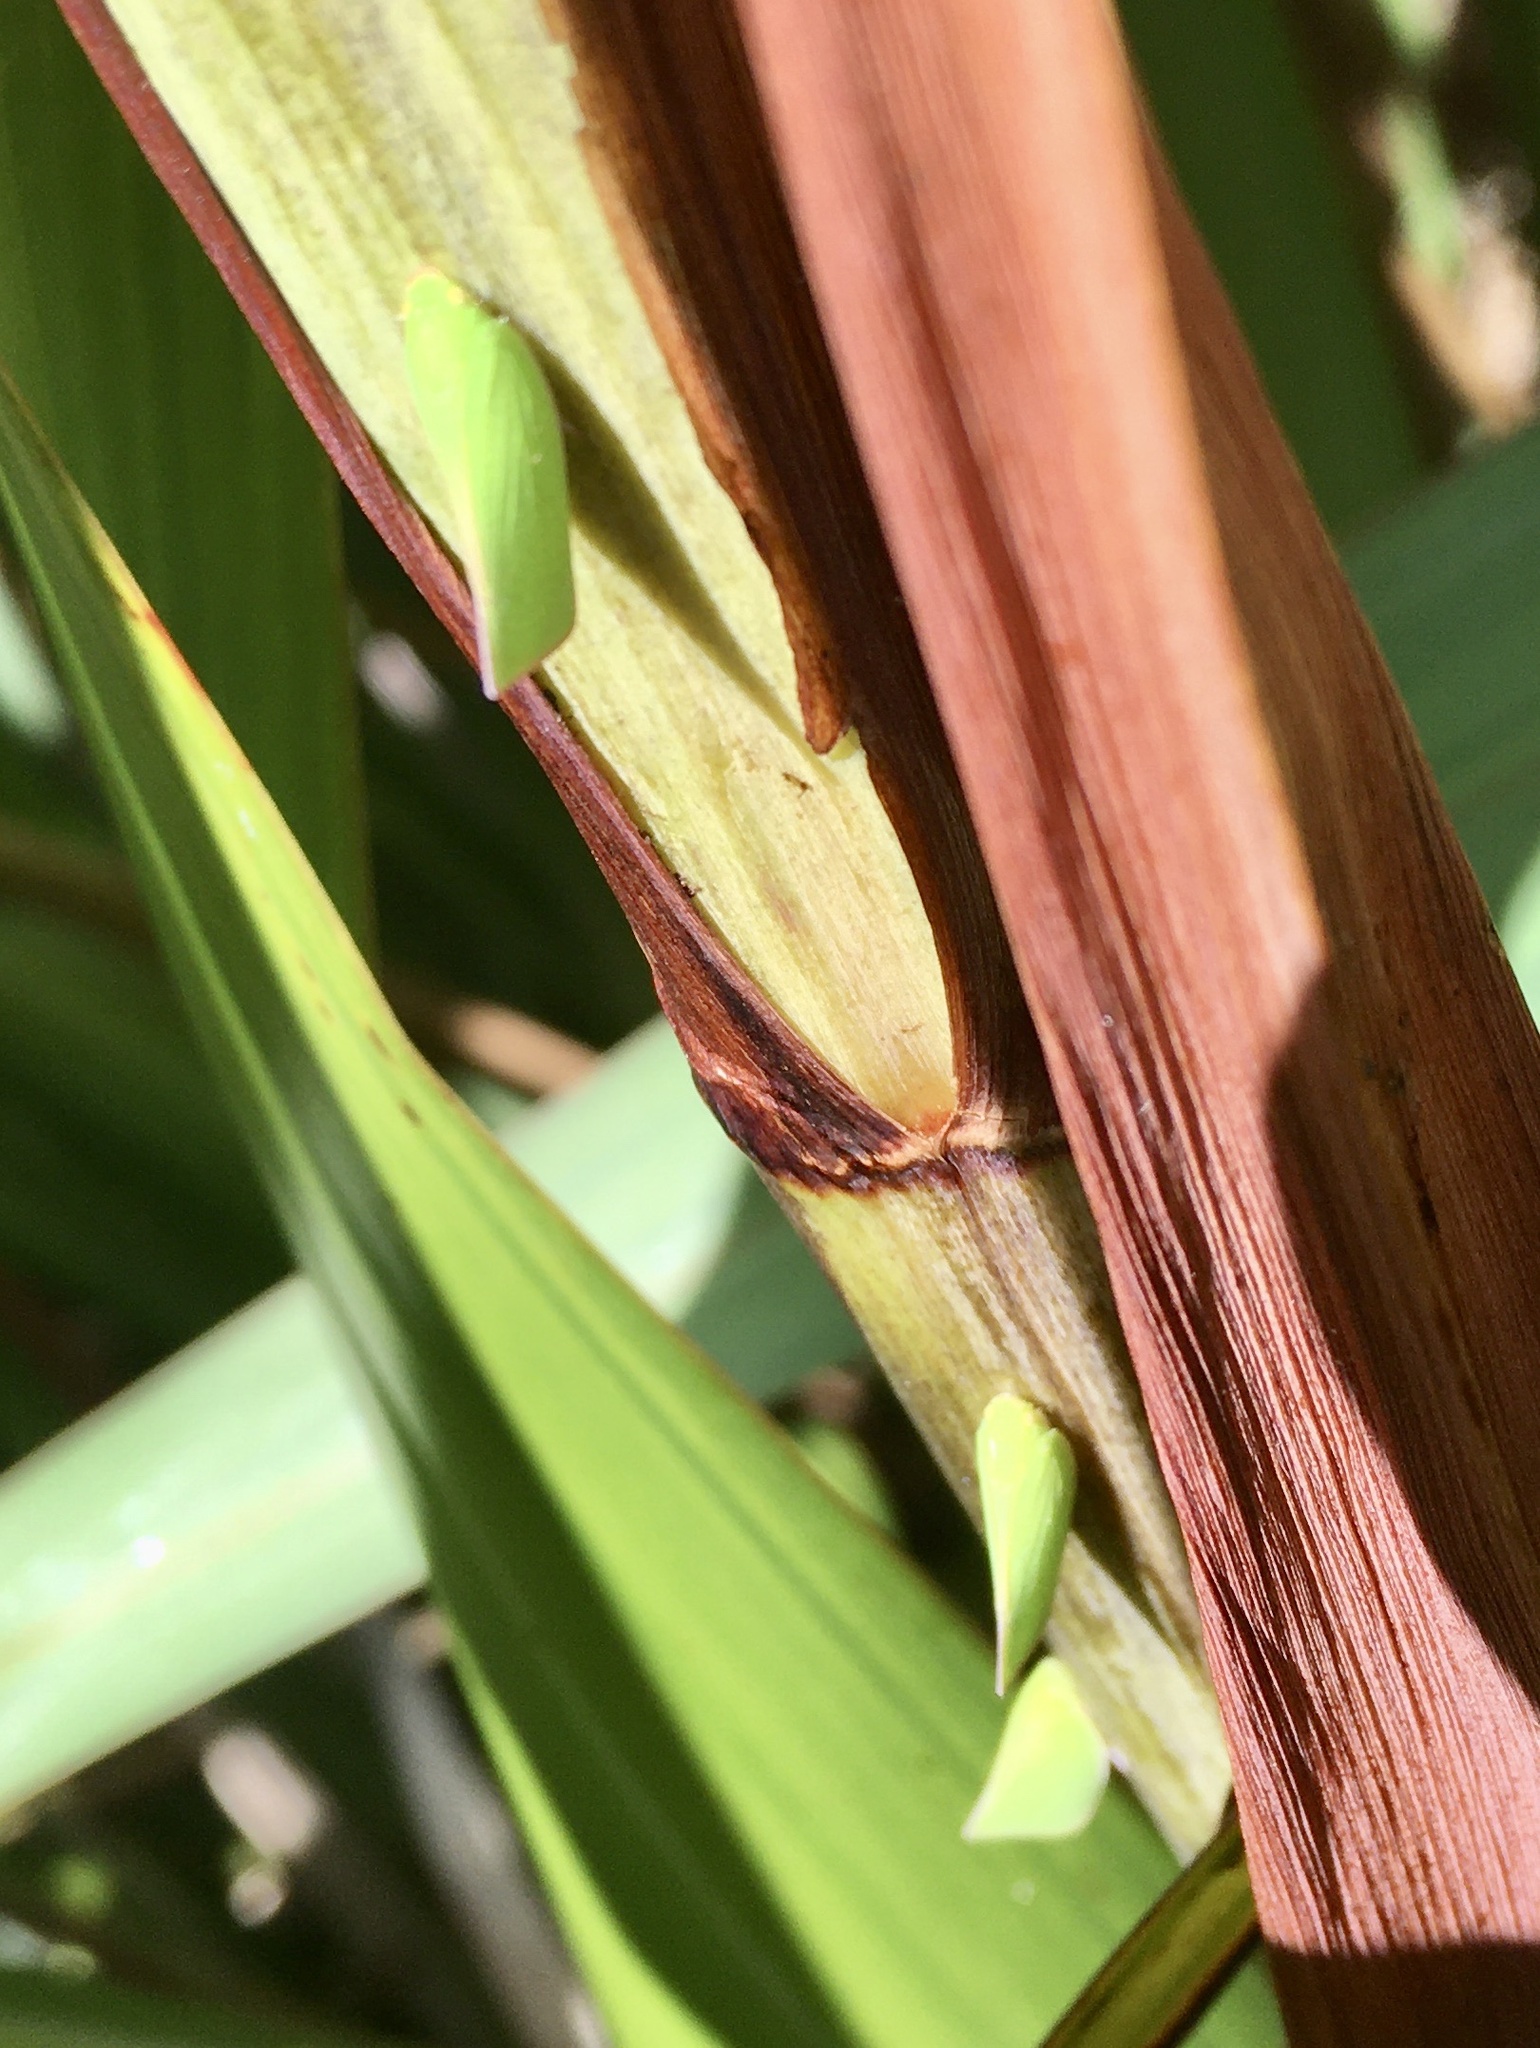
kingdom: Animalia
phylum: Arthropoda
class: Insecta
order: Hemiptera
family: Flatidae
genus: Siphanta
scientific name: Siphanta acuta
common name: Torpedo bug
